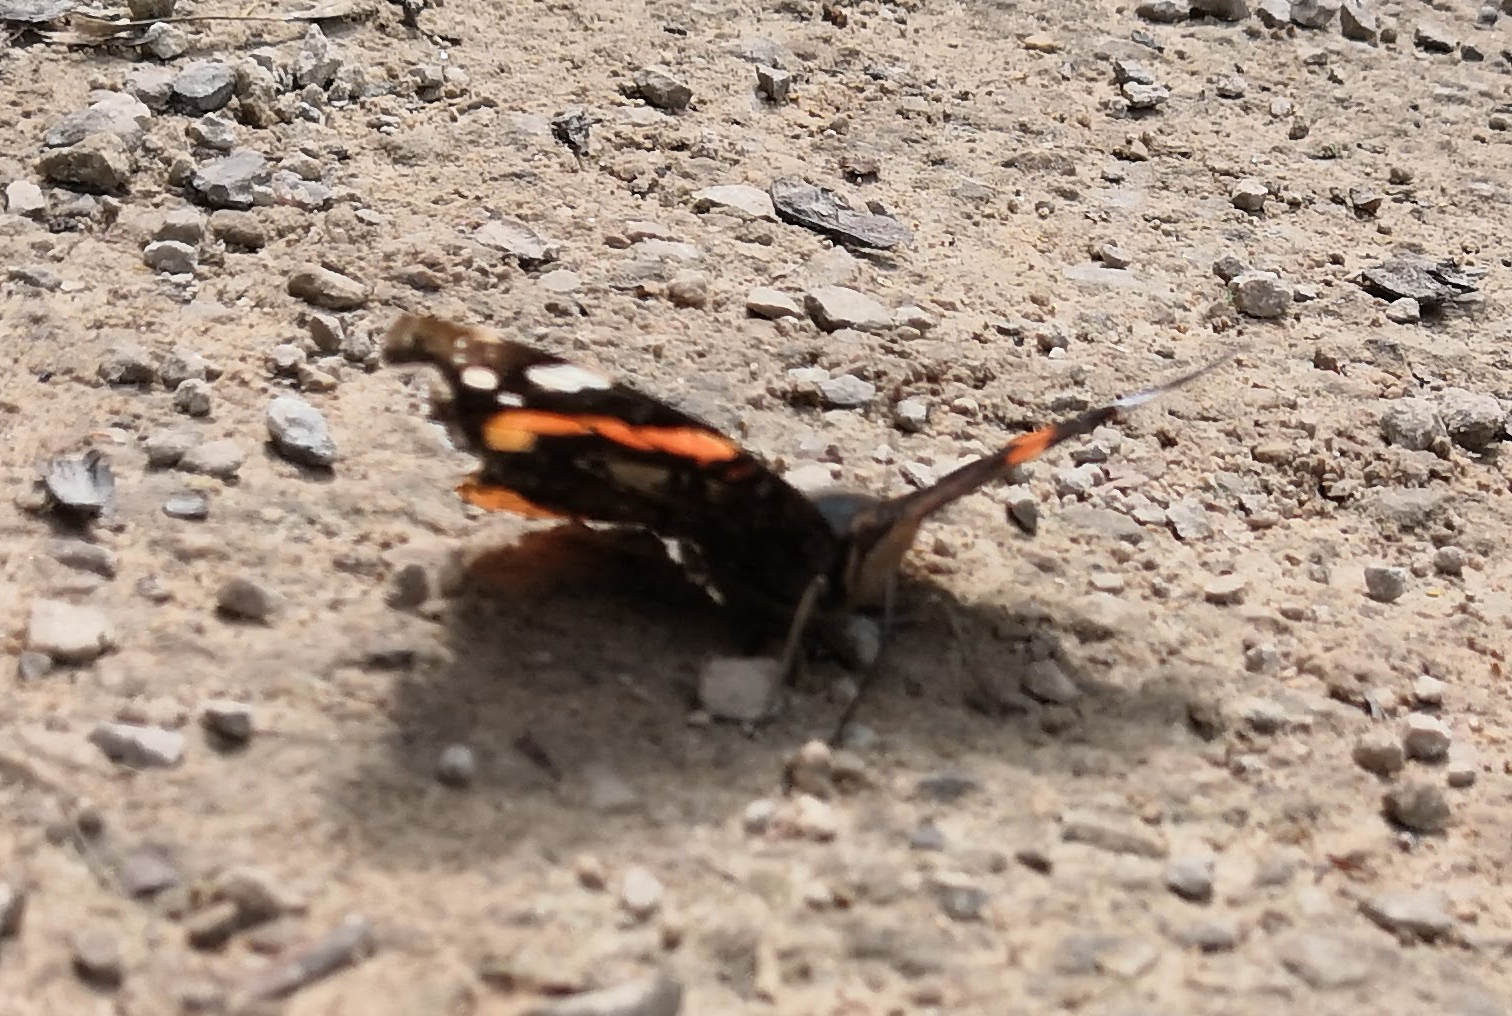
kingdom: Animalia
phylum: Arthropoda
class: Insecta
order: Lepidoptera
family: Nymphalidae
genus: Vanessa
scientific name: Vanessa atalanta
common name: Red admiral
